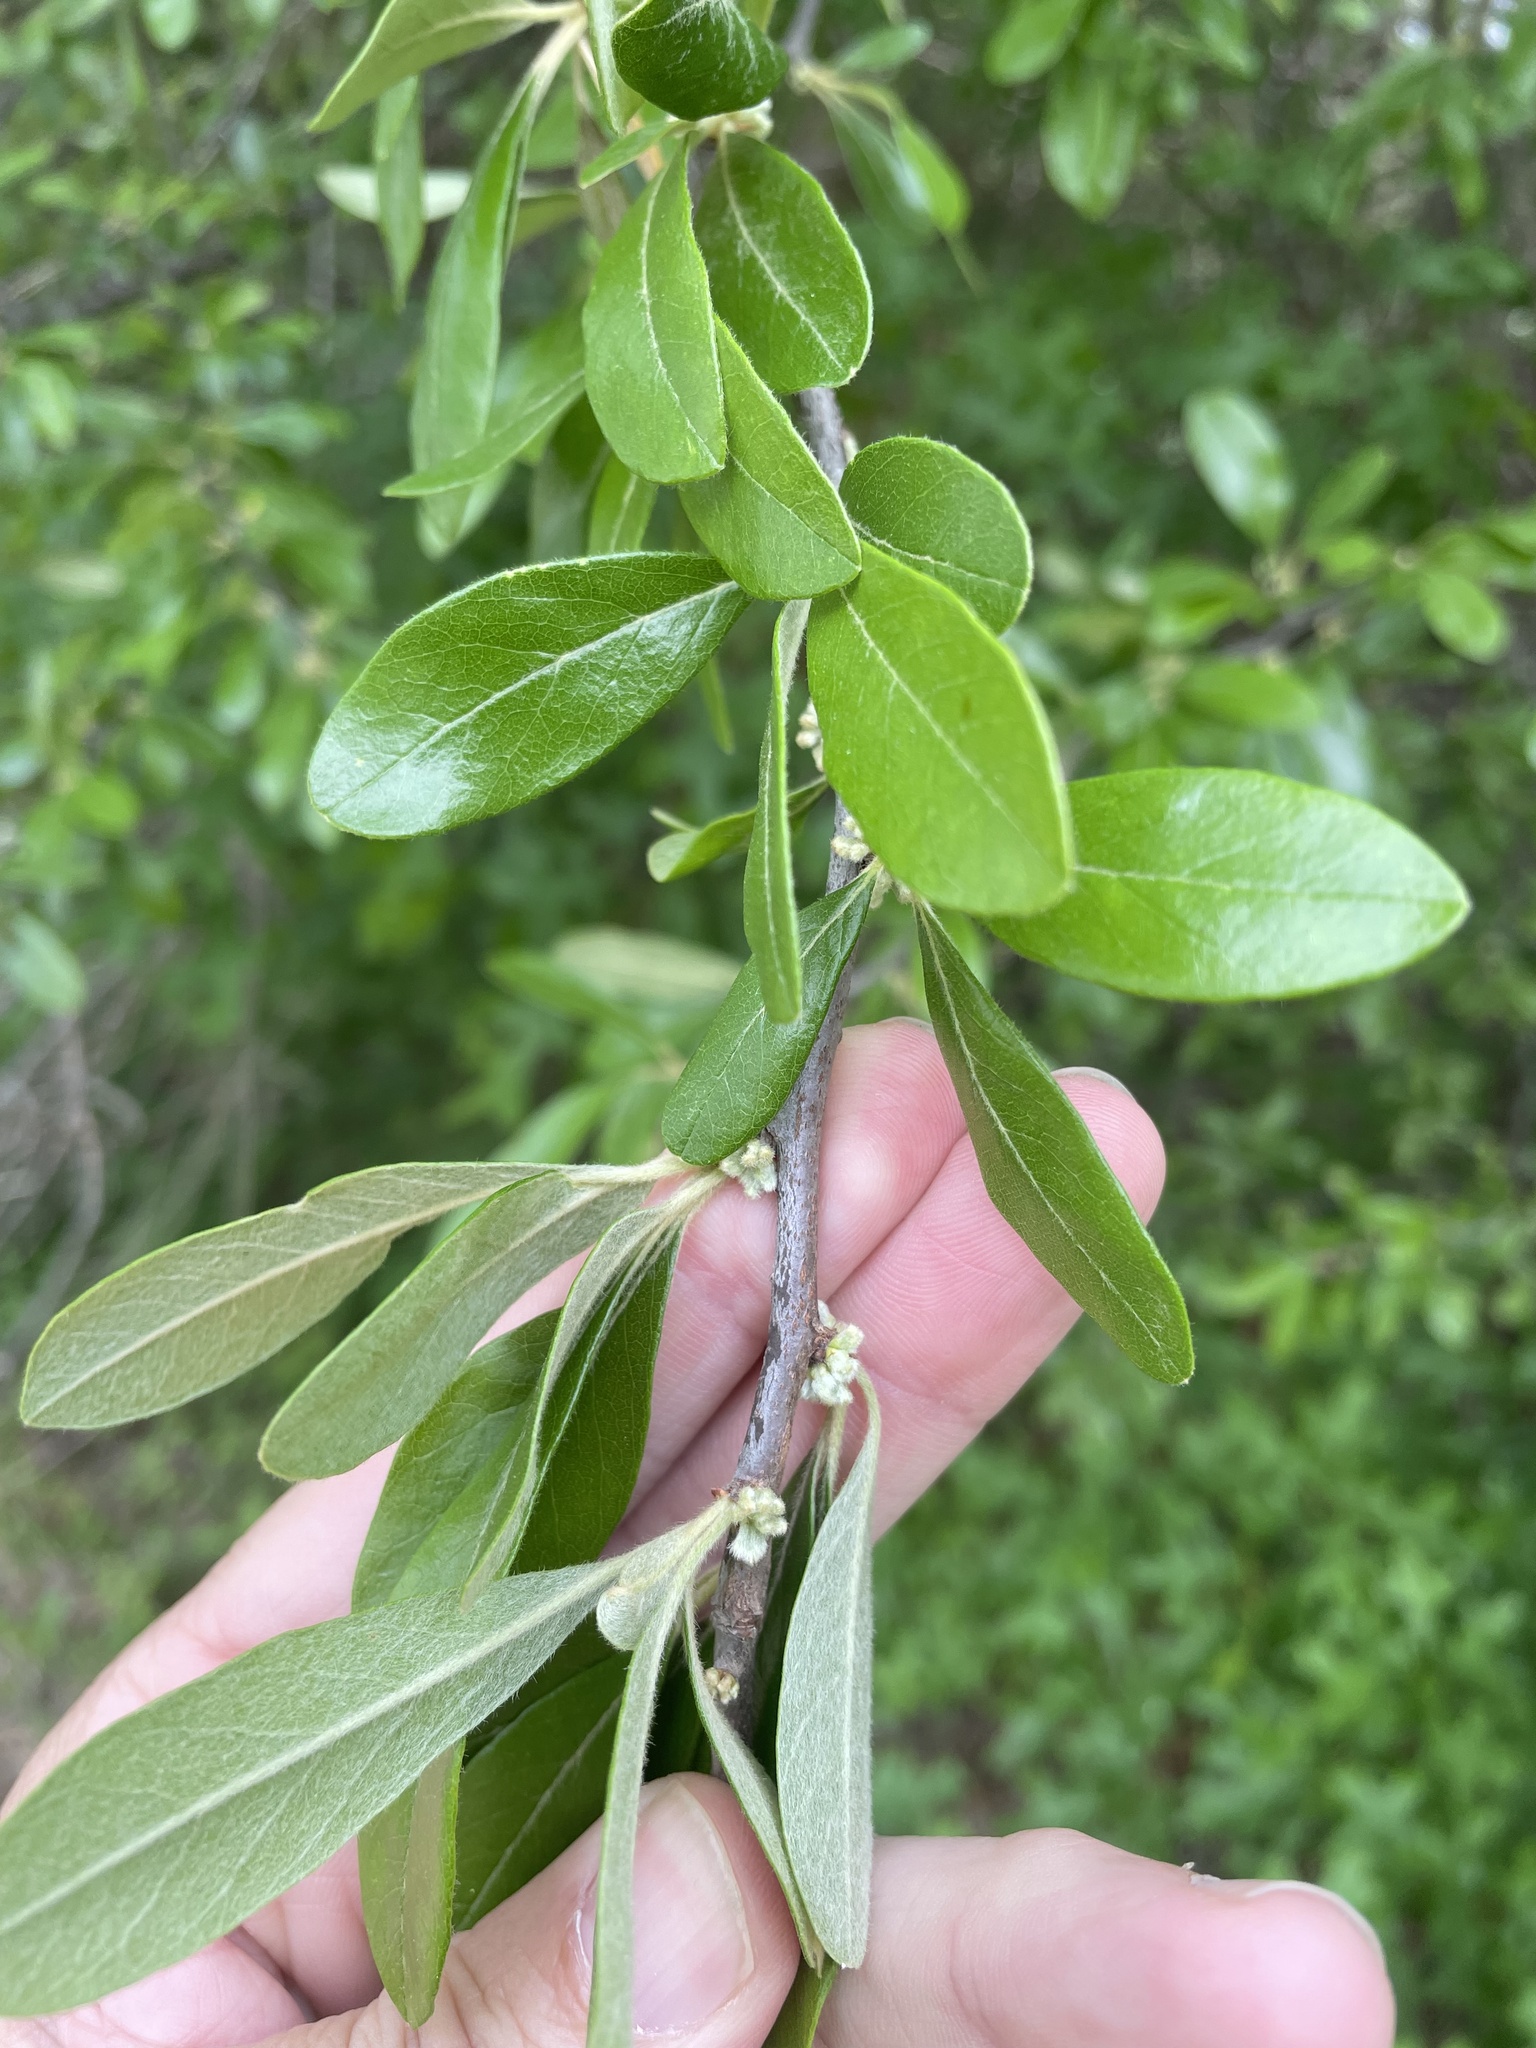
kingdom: Plantae
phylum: Tracheophyta
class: Magnoliopsida
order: Ericales
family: Sapotaceae
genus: Sideroxylon
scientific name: Sideroxylon lanuginosum
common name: Chittamwood
